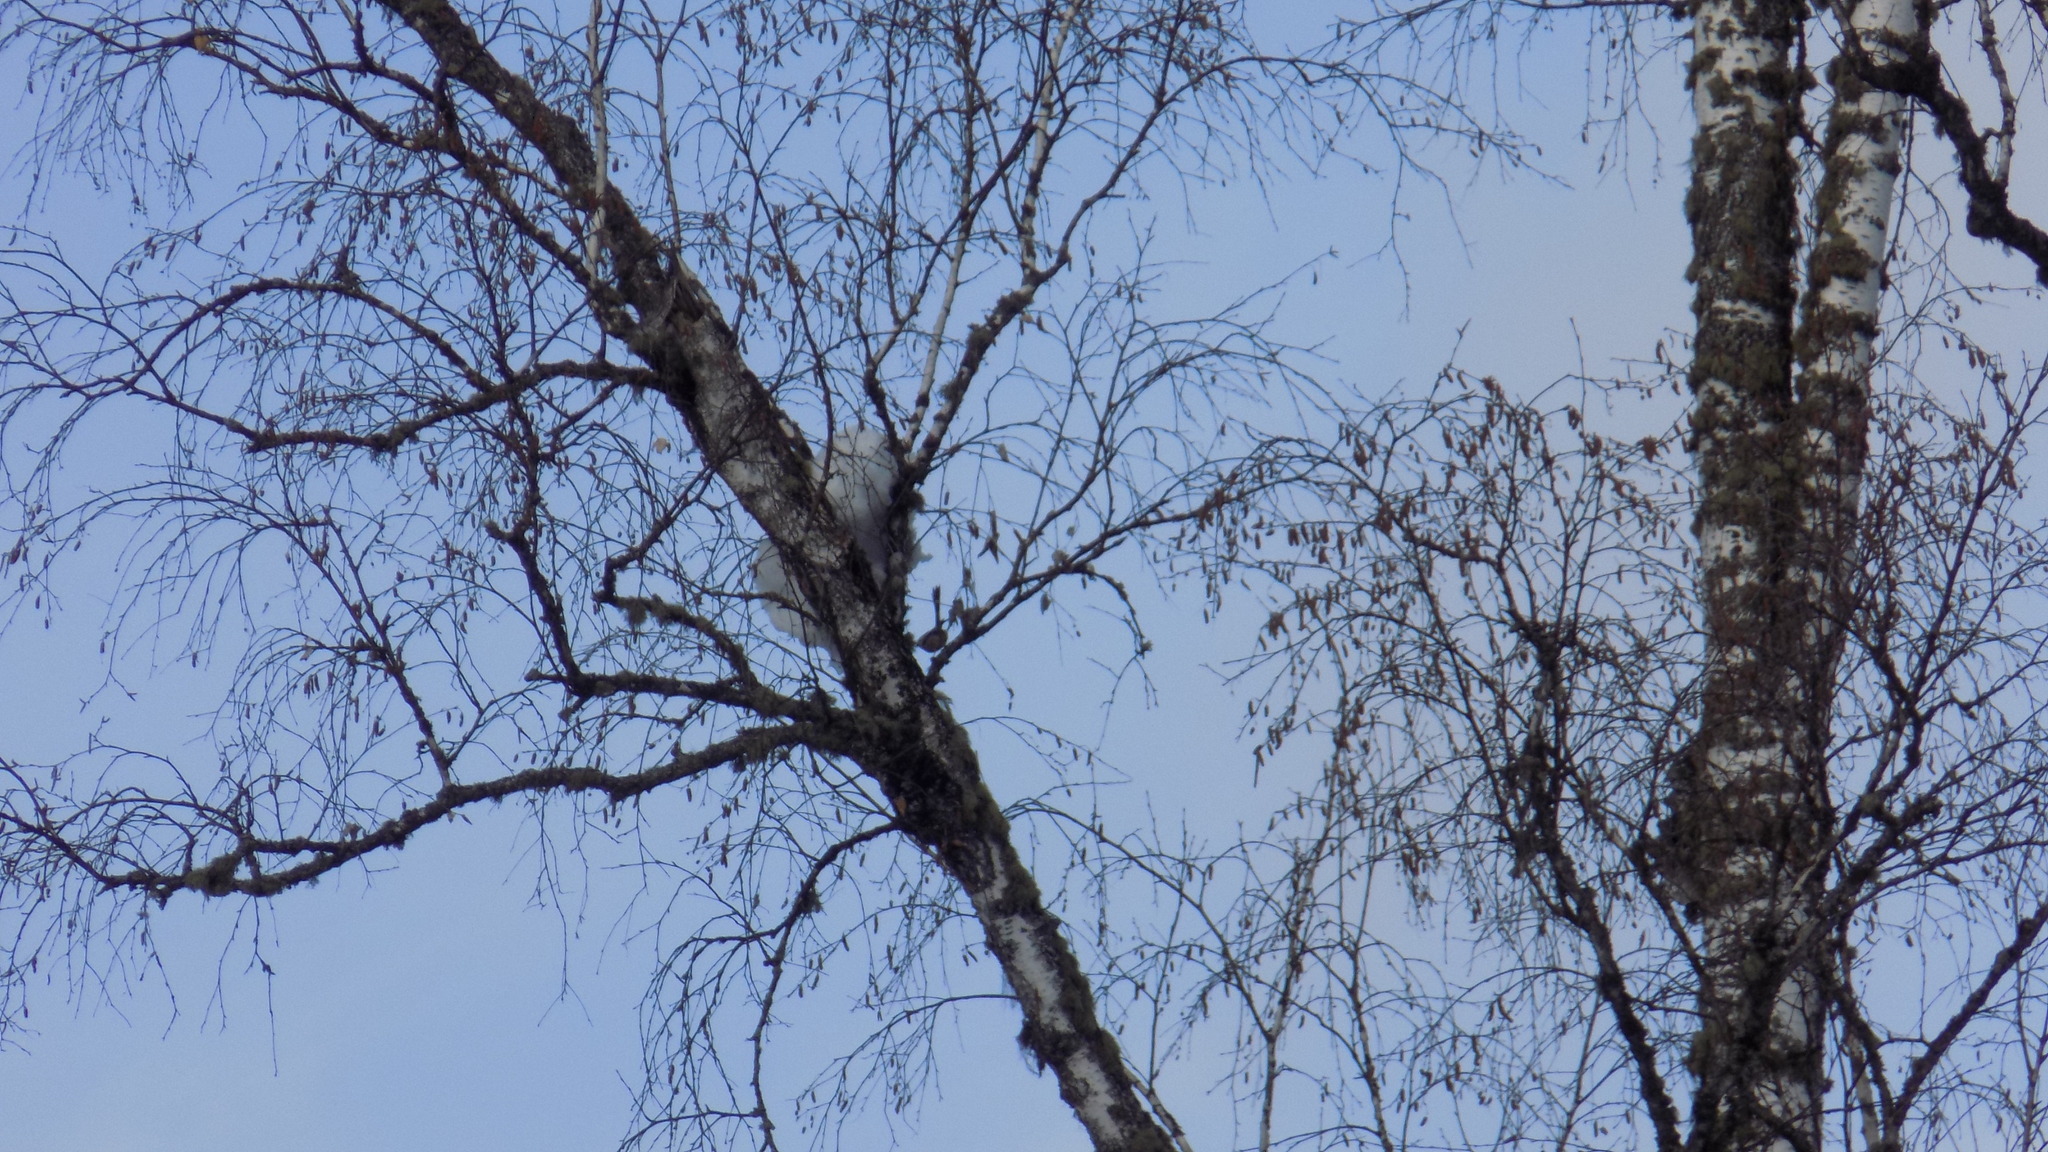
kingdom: Animalia
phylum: Chordata
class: Aves
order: Passeriformes
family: Aegithalidae
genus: Aegithalos
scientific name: Aegithalos caudatus
